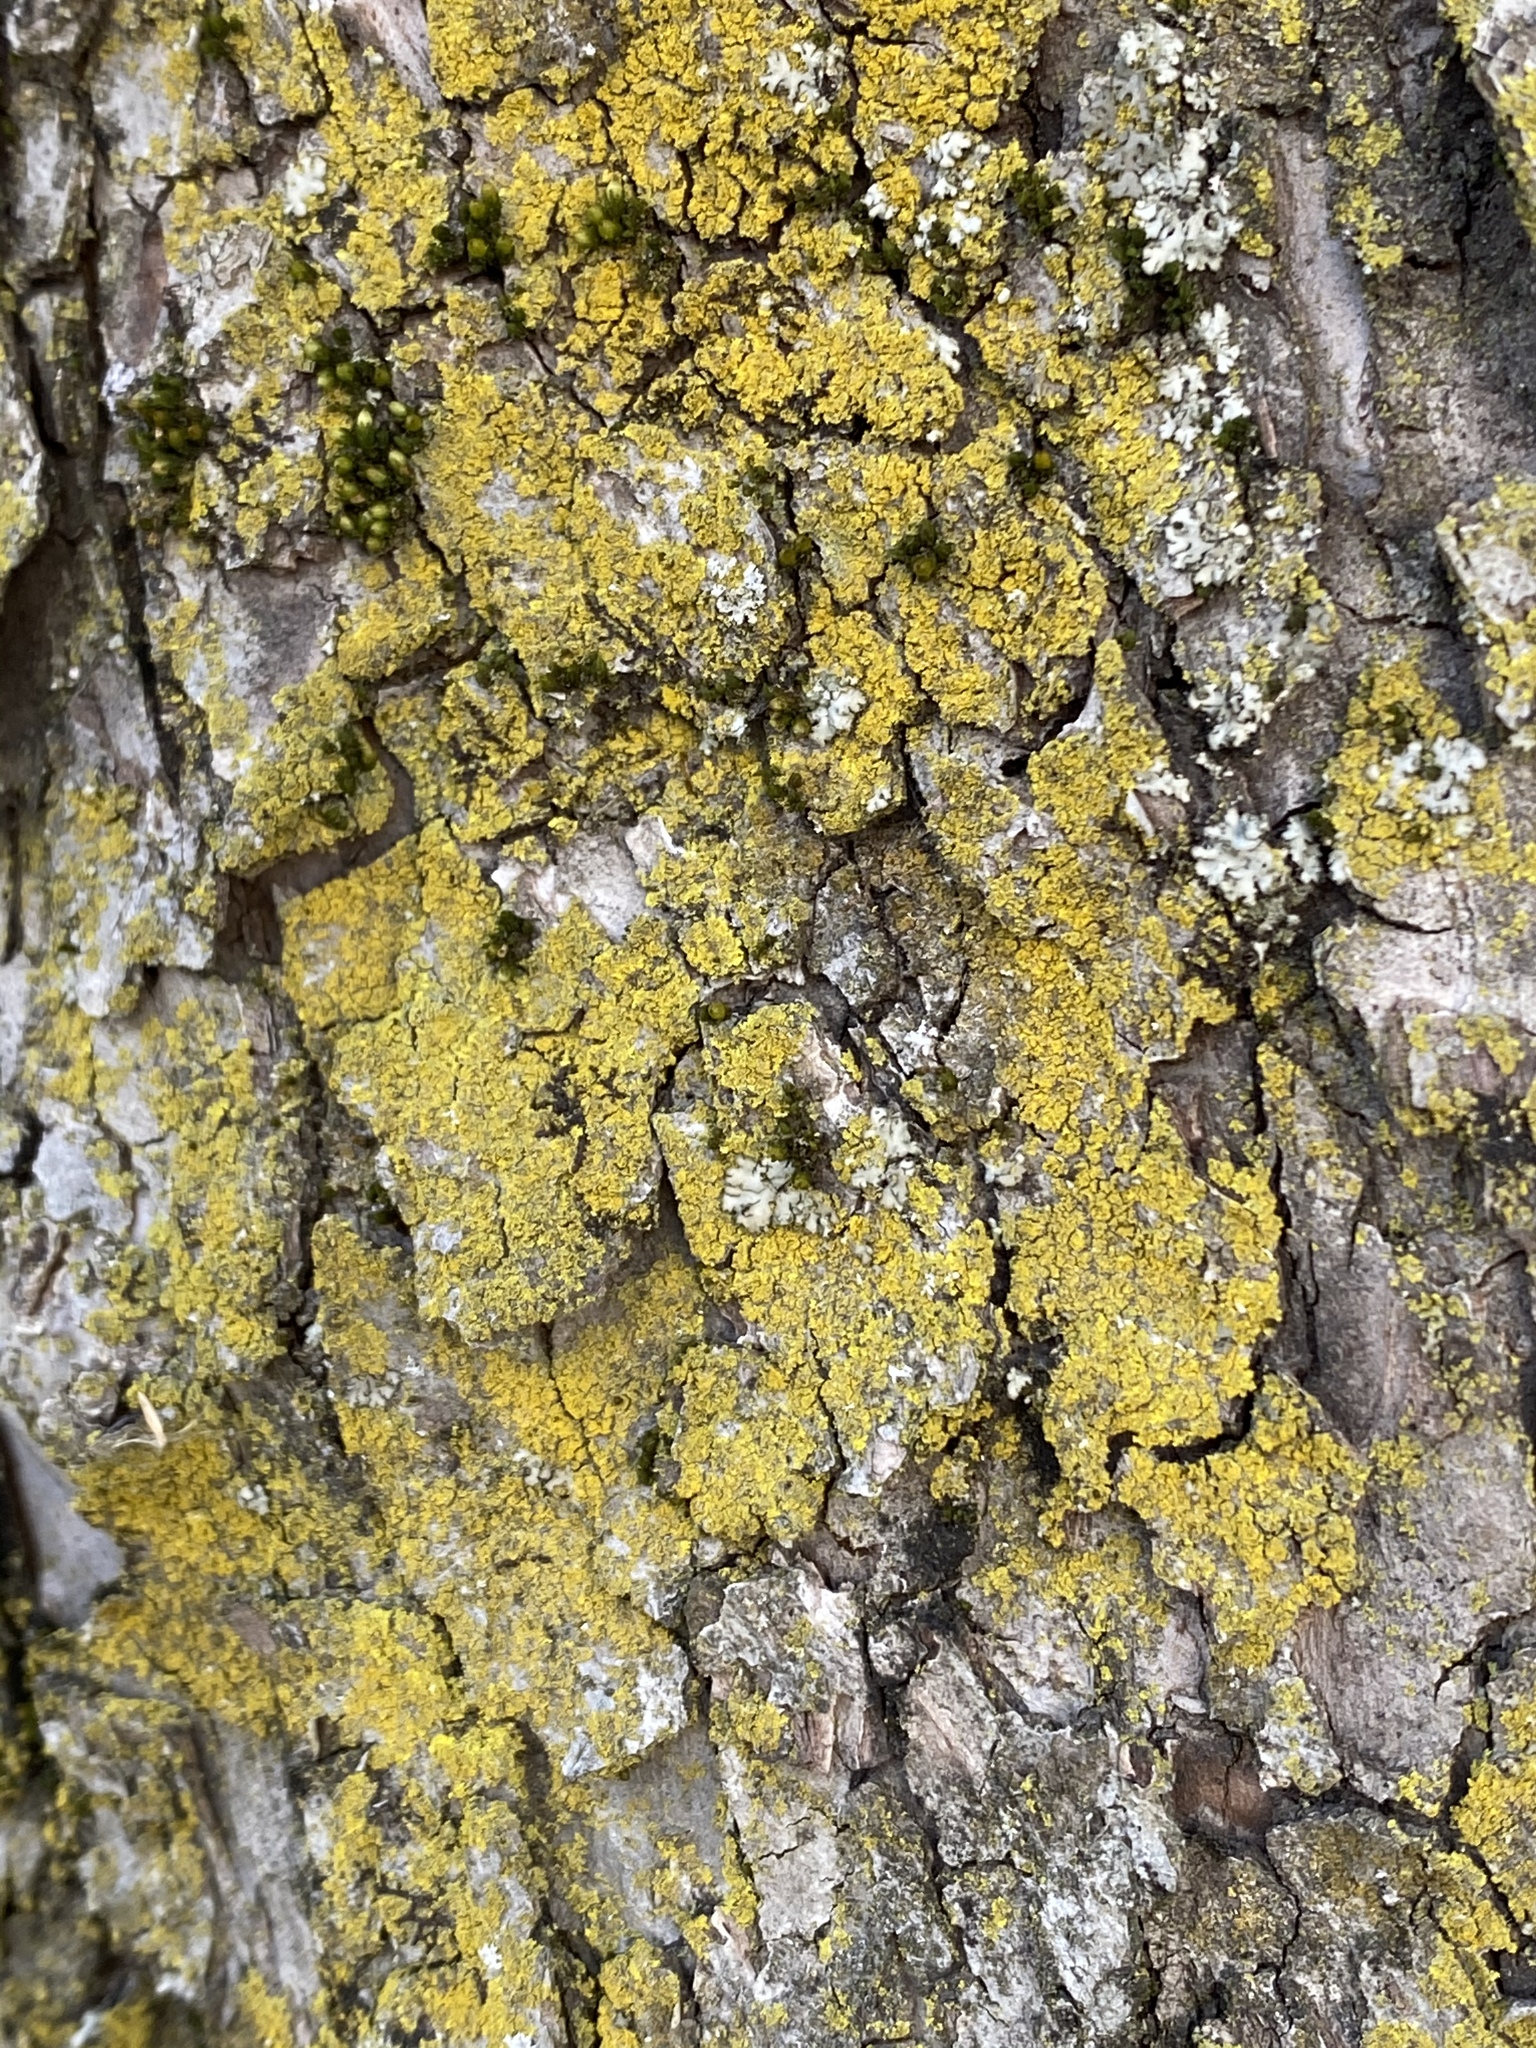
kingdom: Fungi
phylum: Ascomycota
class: Candelariomycetes
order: Candelariales
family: Candelariaceae
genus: Candelaria
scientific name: Candelaria concolor
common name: Candleflame lichen
